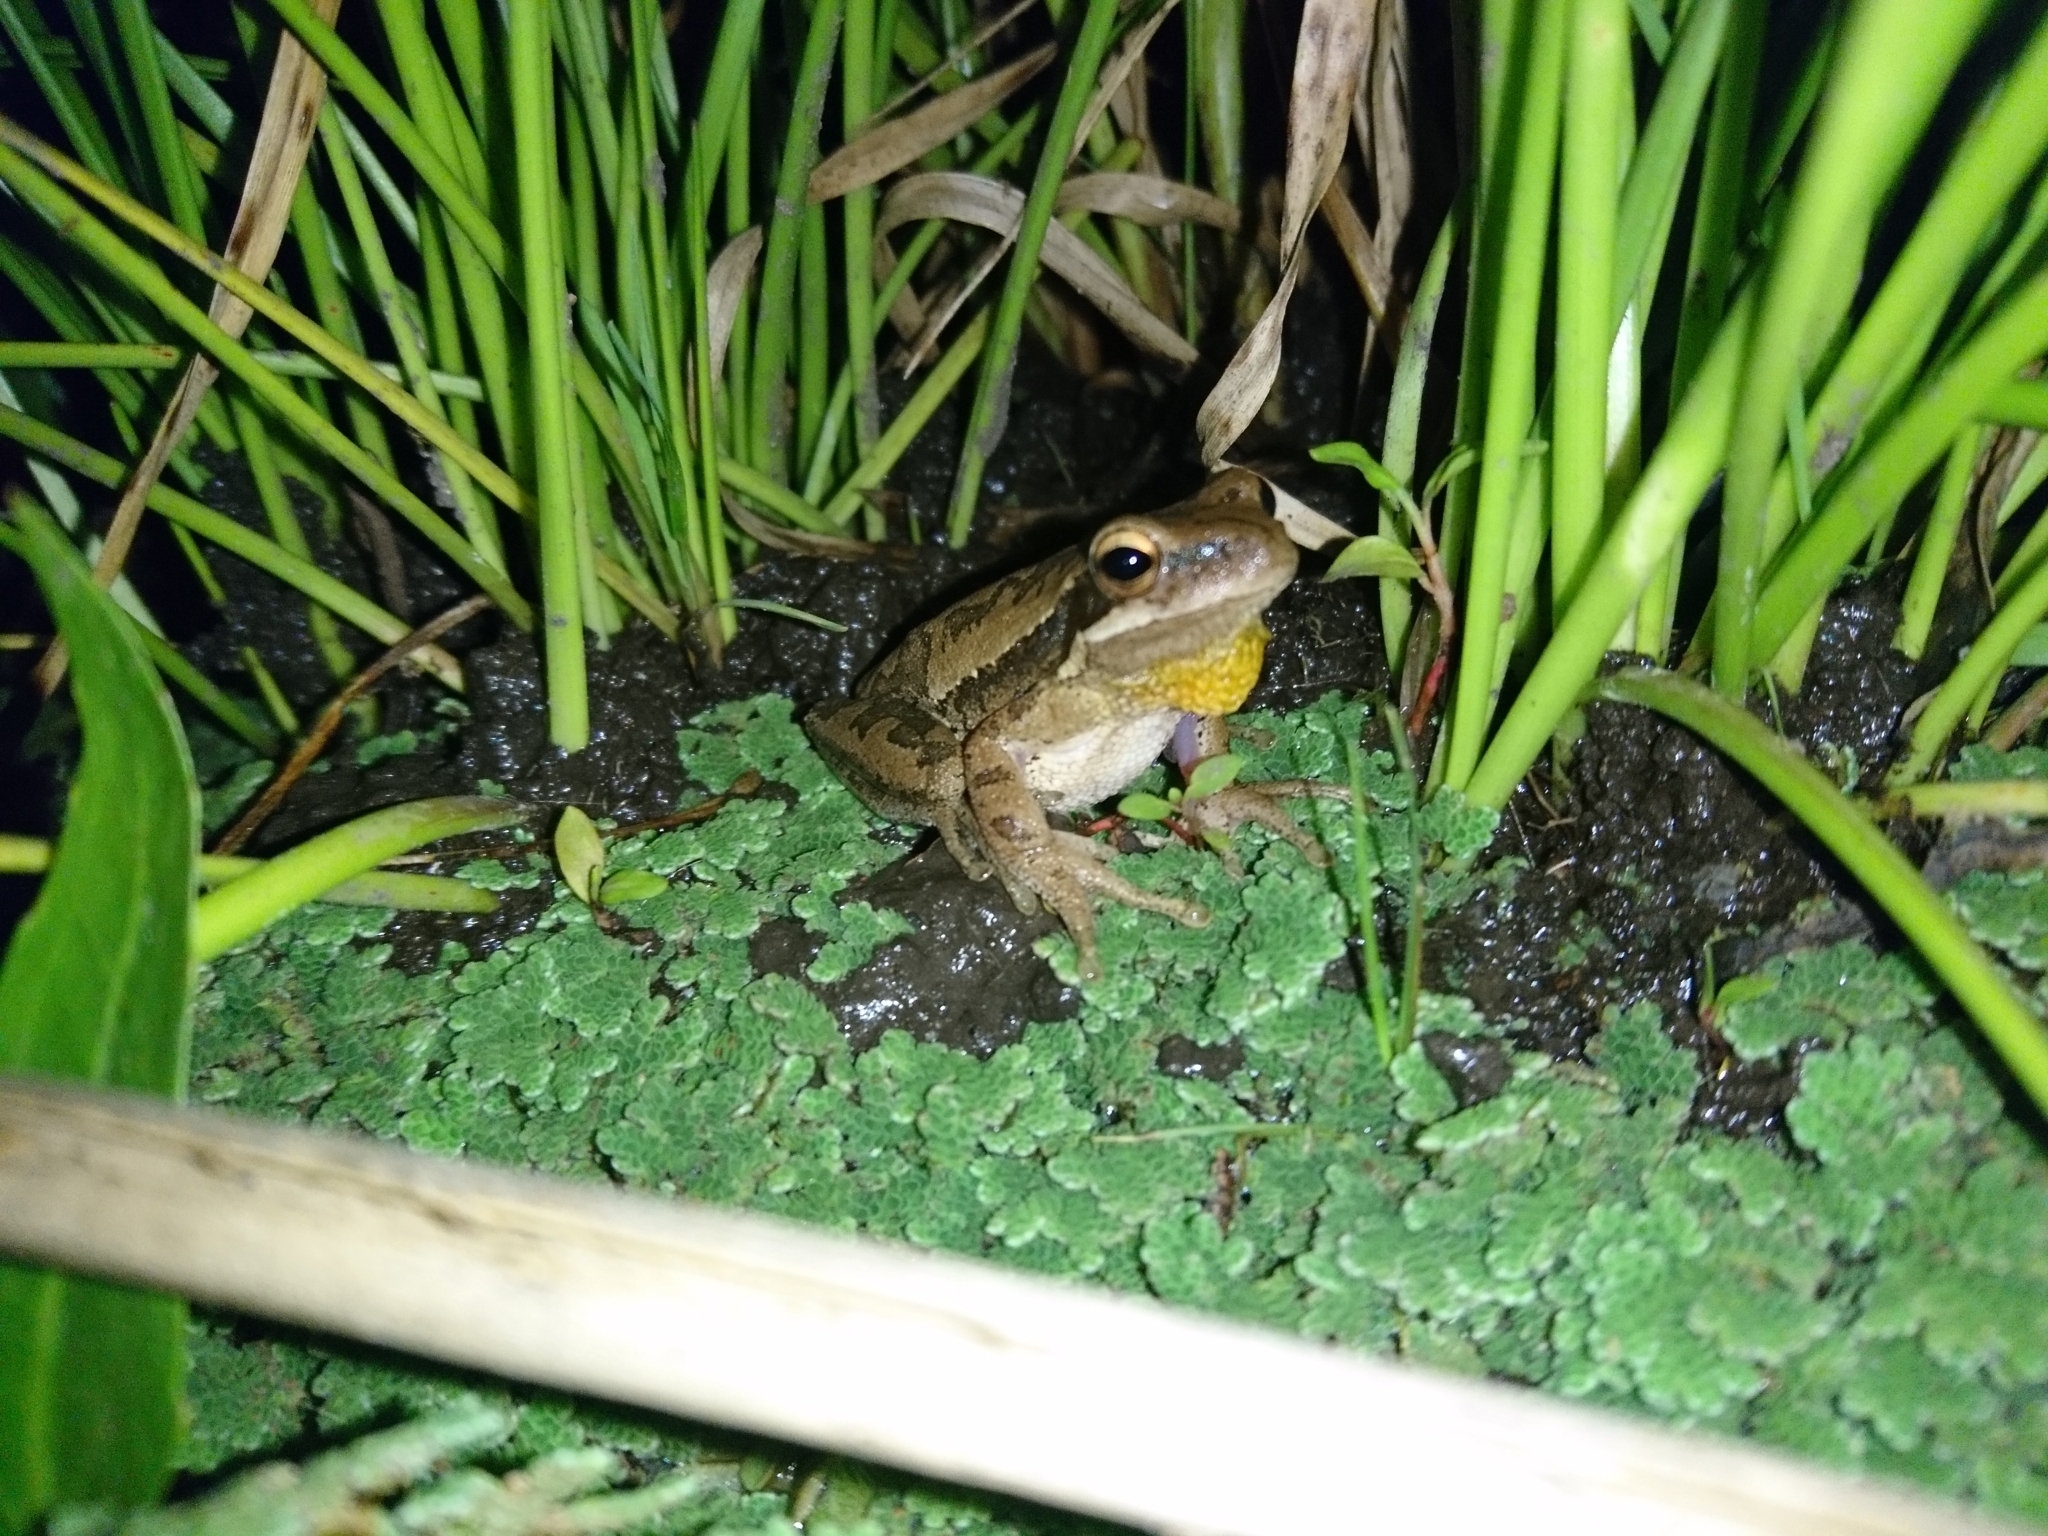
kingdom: Animalia
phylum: Chordata
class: Amphibia
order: Anura
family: Hylidae
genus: Boana
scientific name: Boana pulchella
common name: Montevideo treefrog
